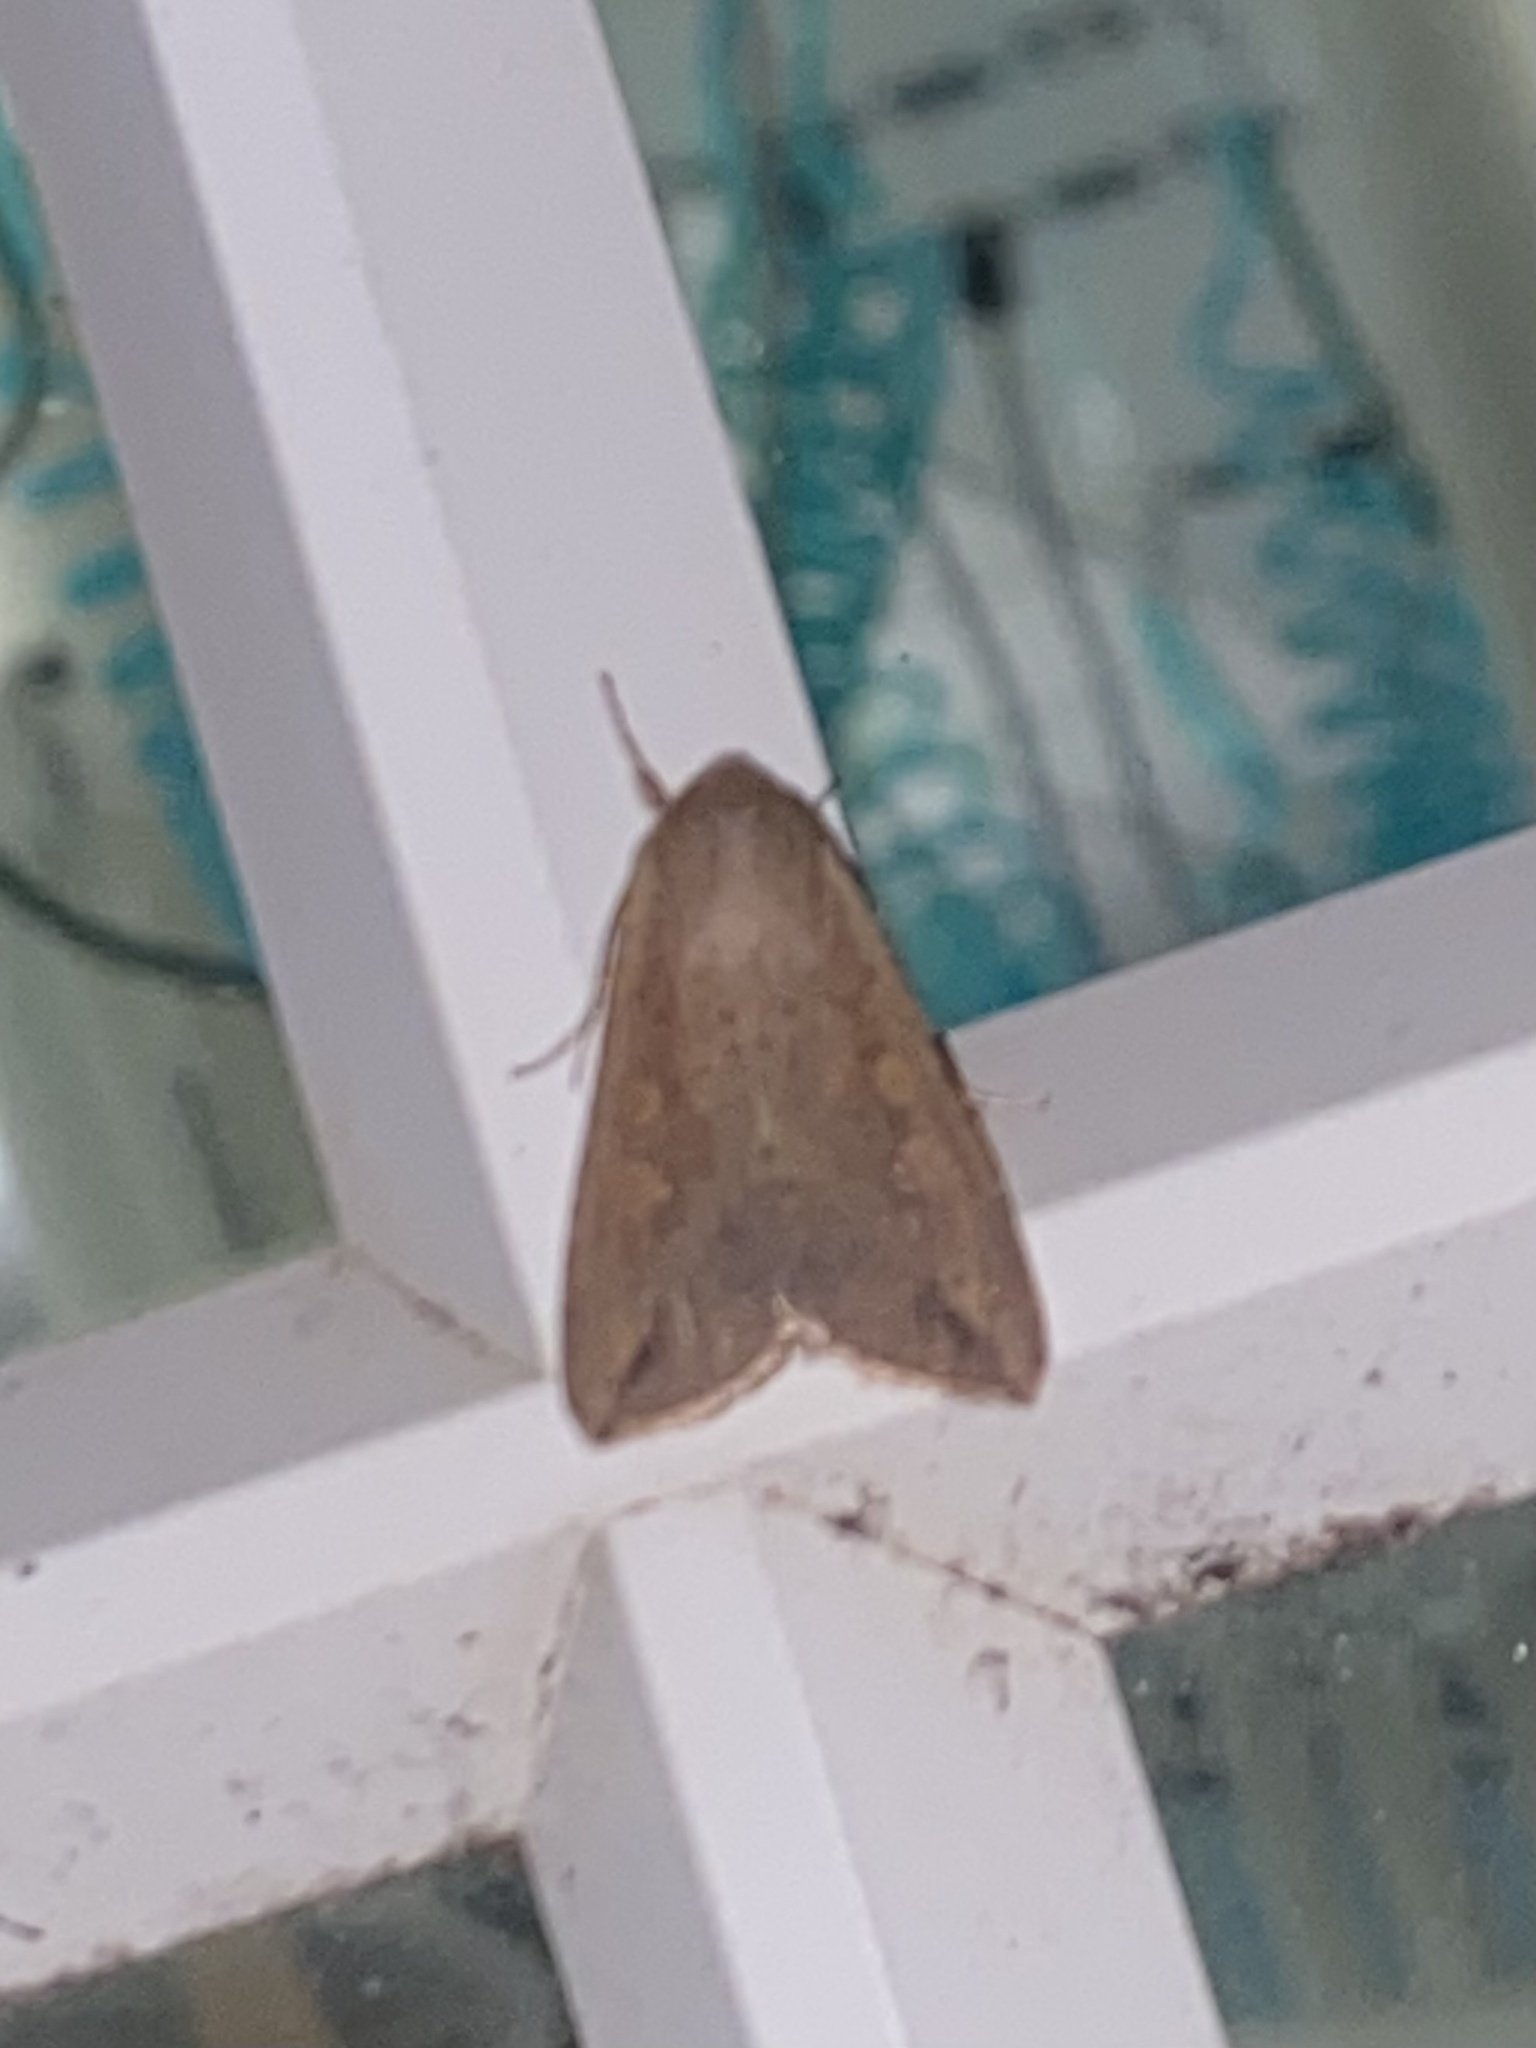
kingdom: Animalia
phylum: Arthropoda
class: Insecta
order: Lepidoptera
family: Noctuidae
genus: Mythimna
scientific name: Mythimna unipuncta
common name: White-speck
